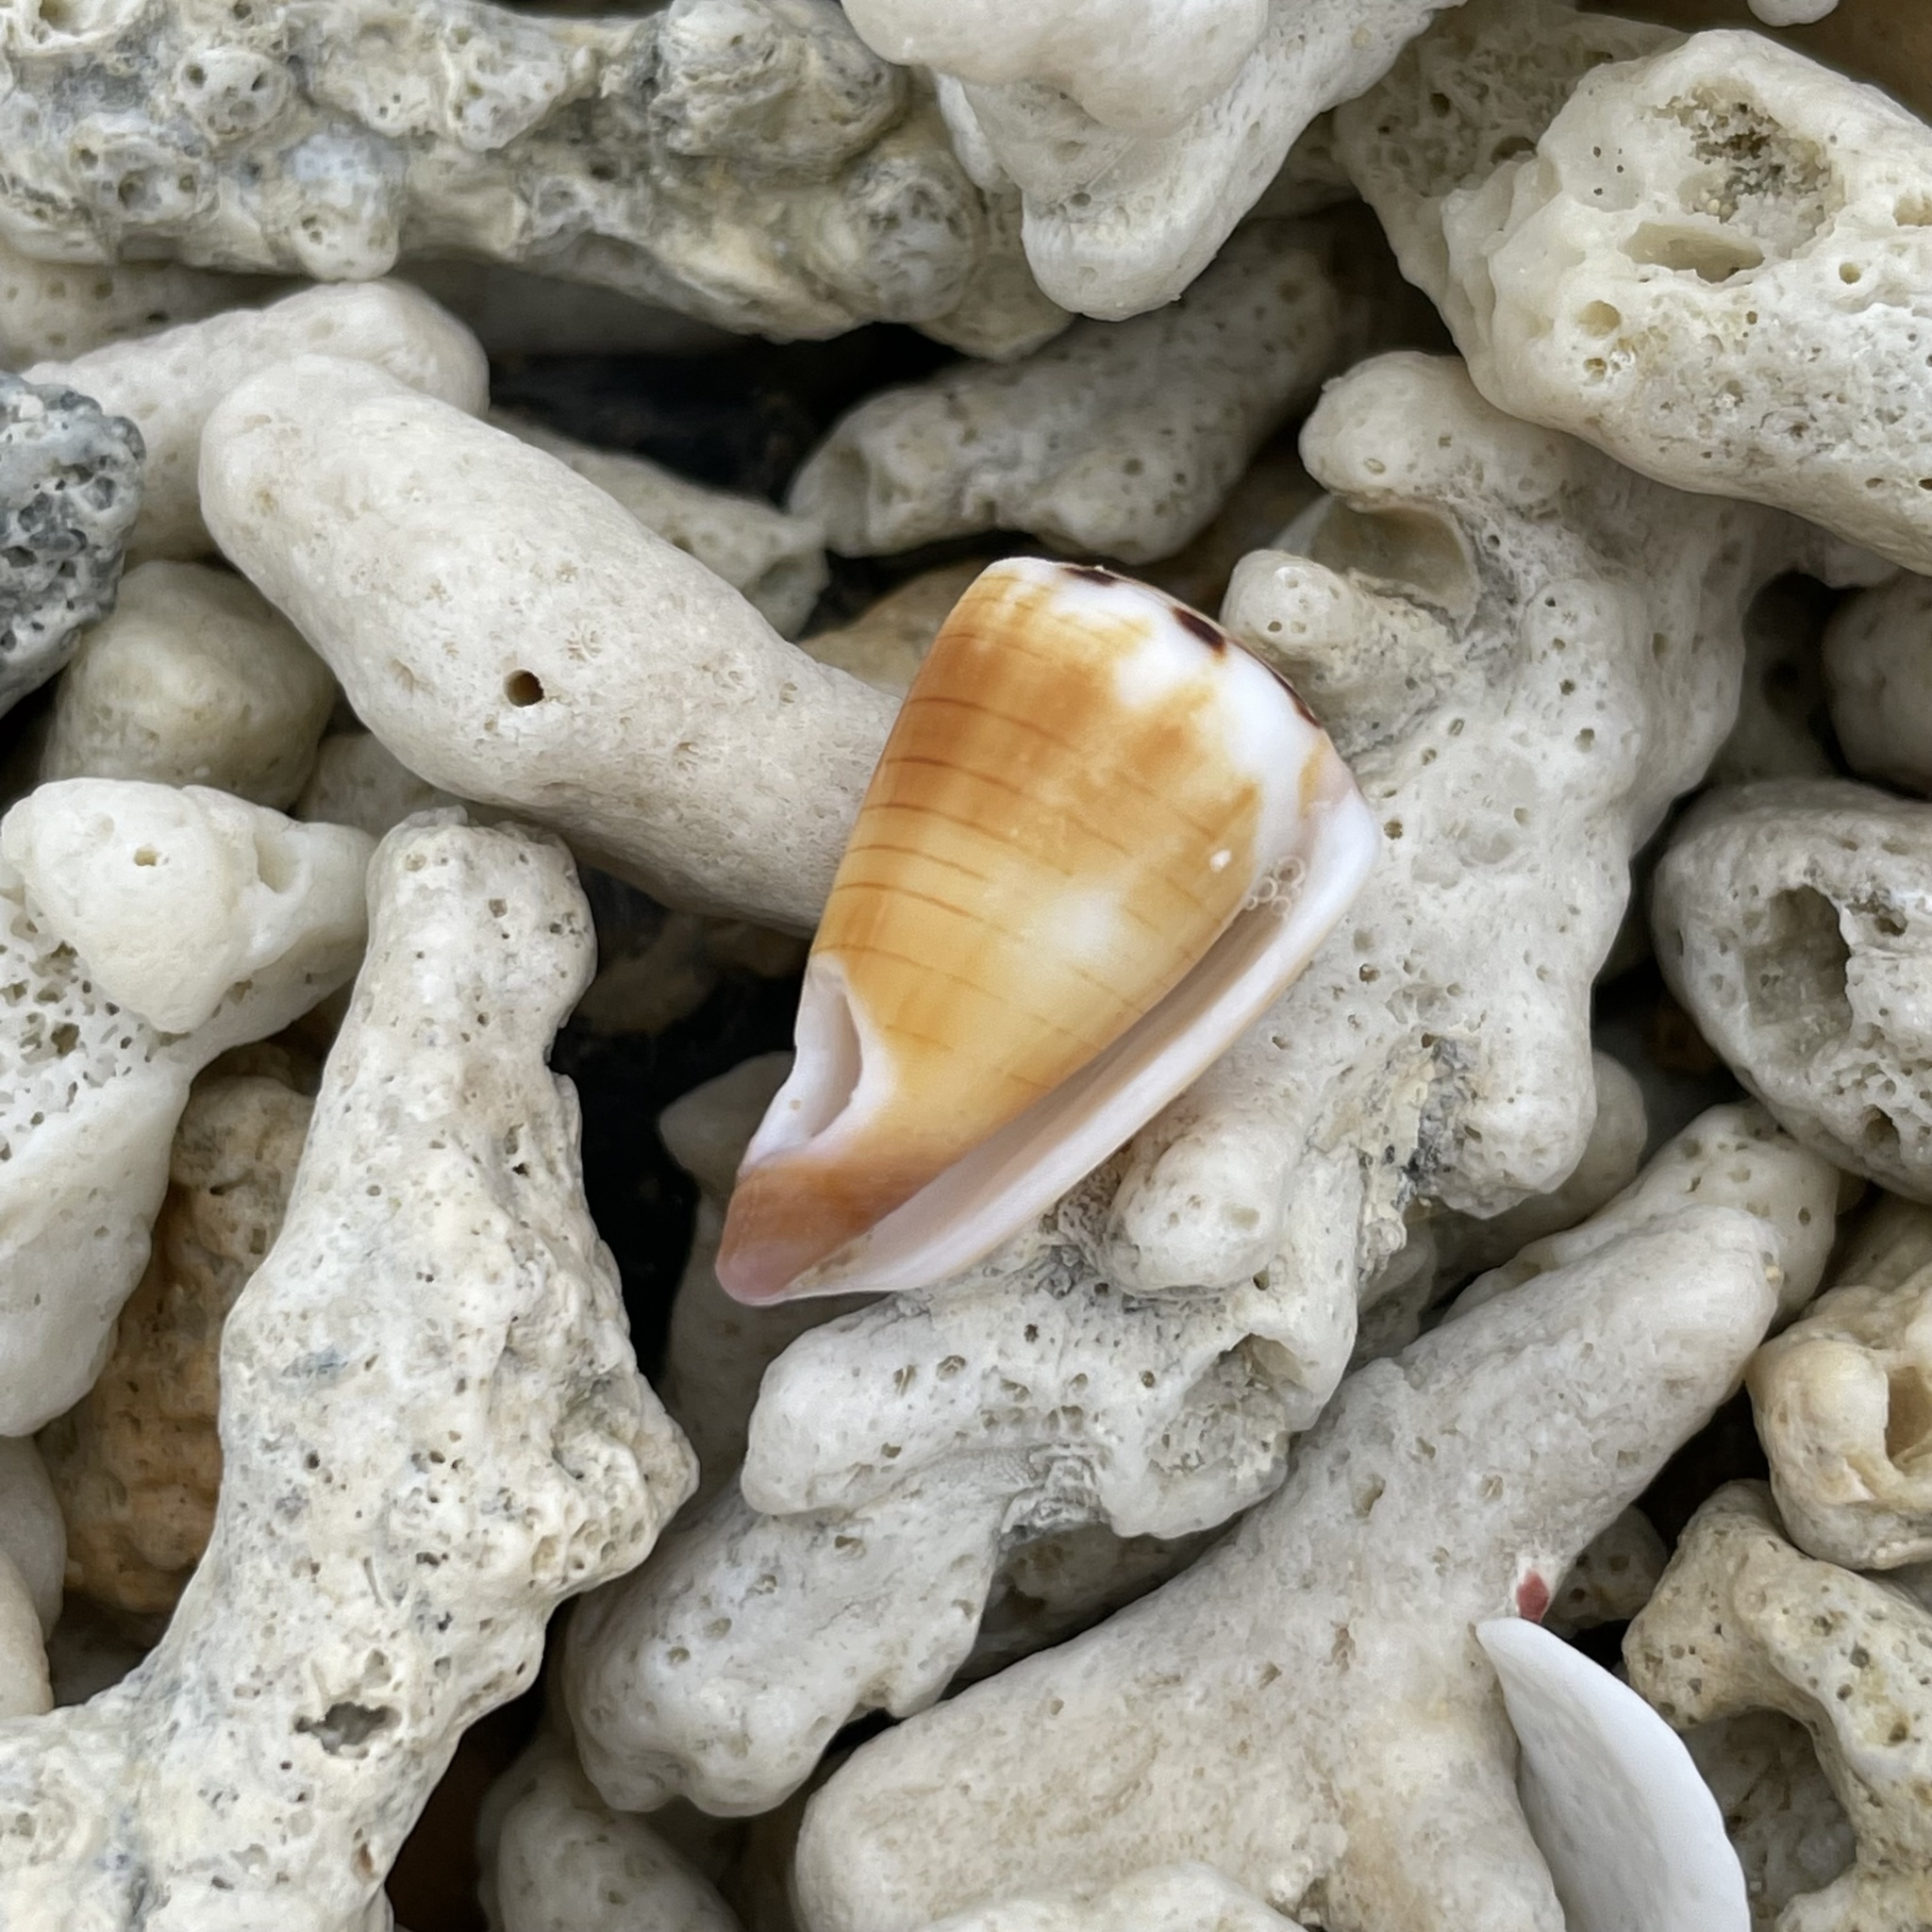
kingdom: Animalia
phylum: Mollusca
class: Gastropoda
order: Neogastropoda
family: Conidae
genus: Conus
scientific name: Conus ferrugineus
